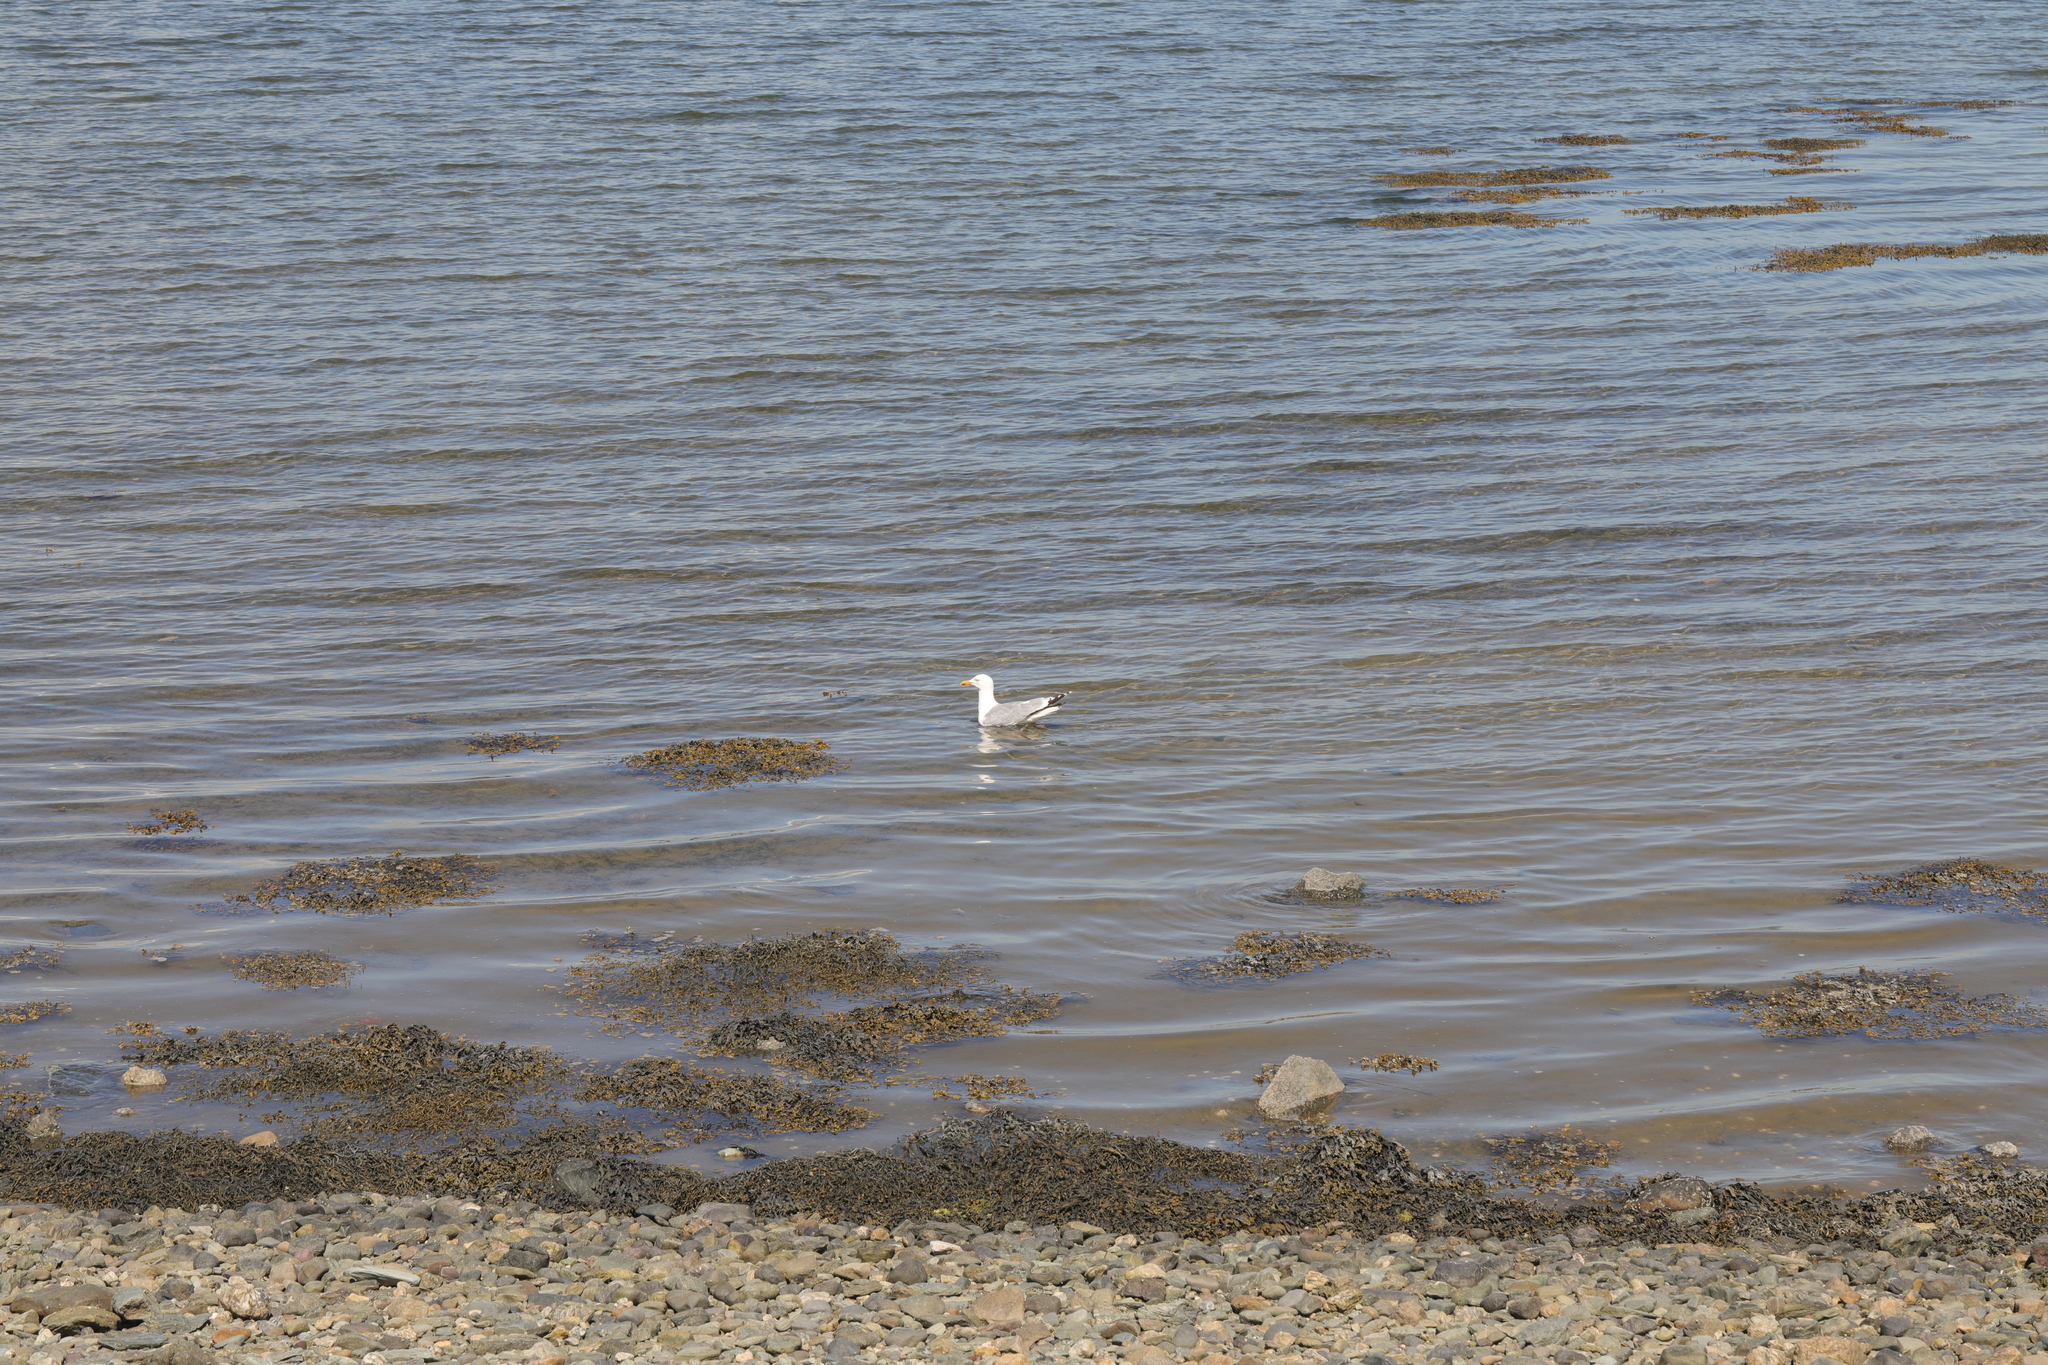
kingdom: Animalia
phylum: Chordata
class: Aves
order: Charadriiformes
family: Laridae
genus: Larus
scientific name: Larus argentatus
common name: Herring gull
